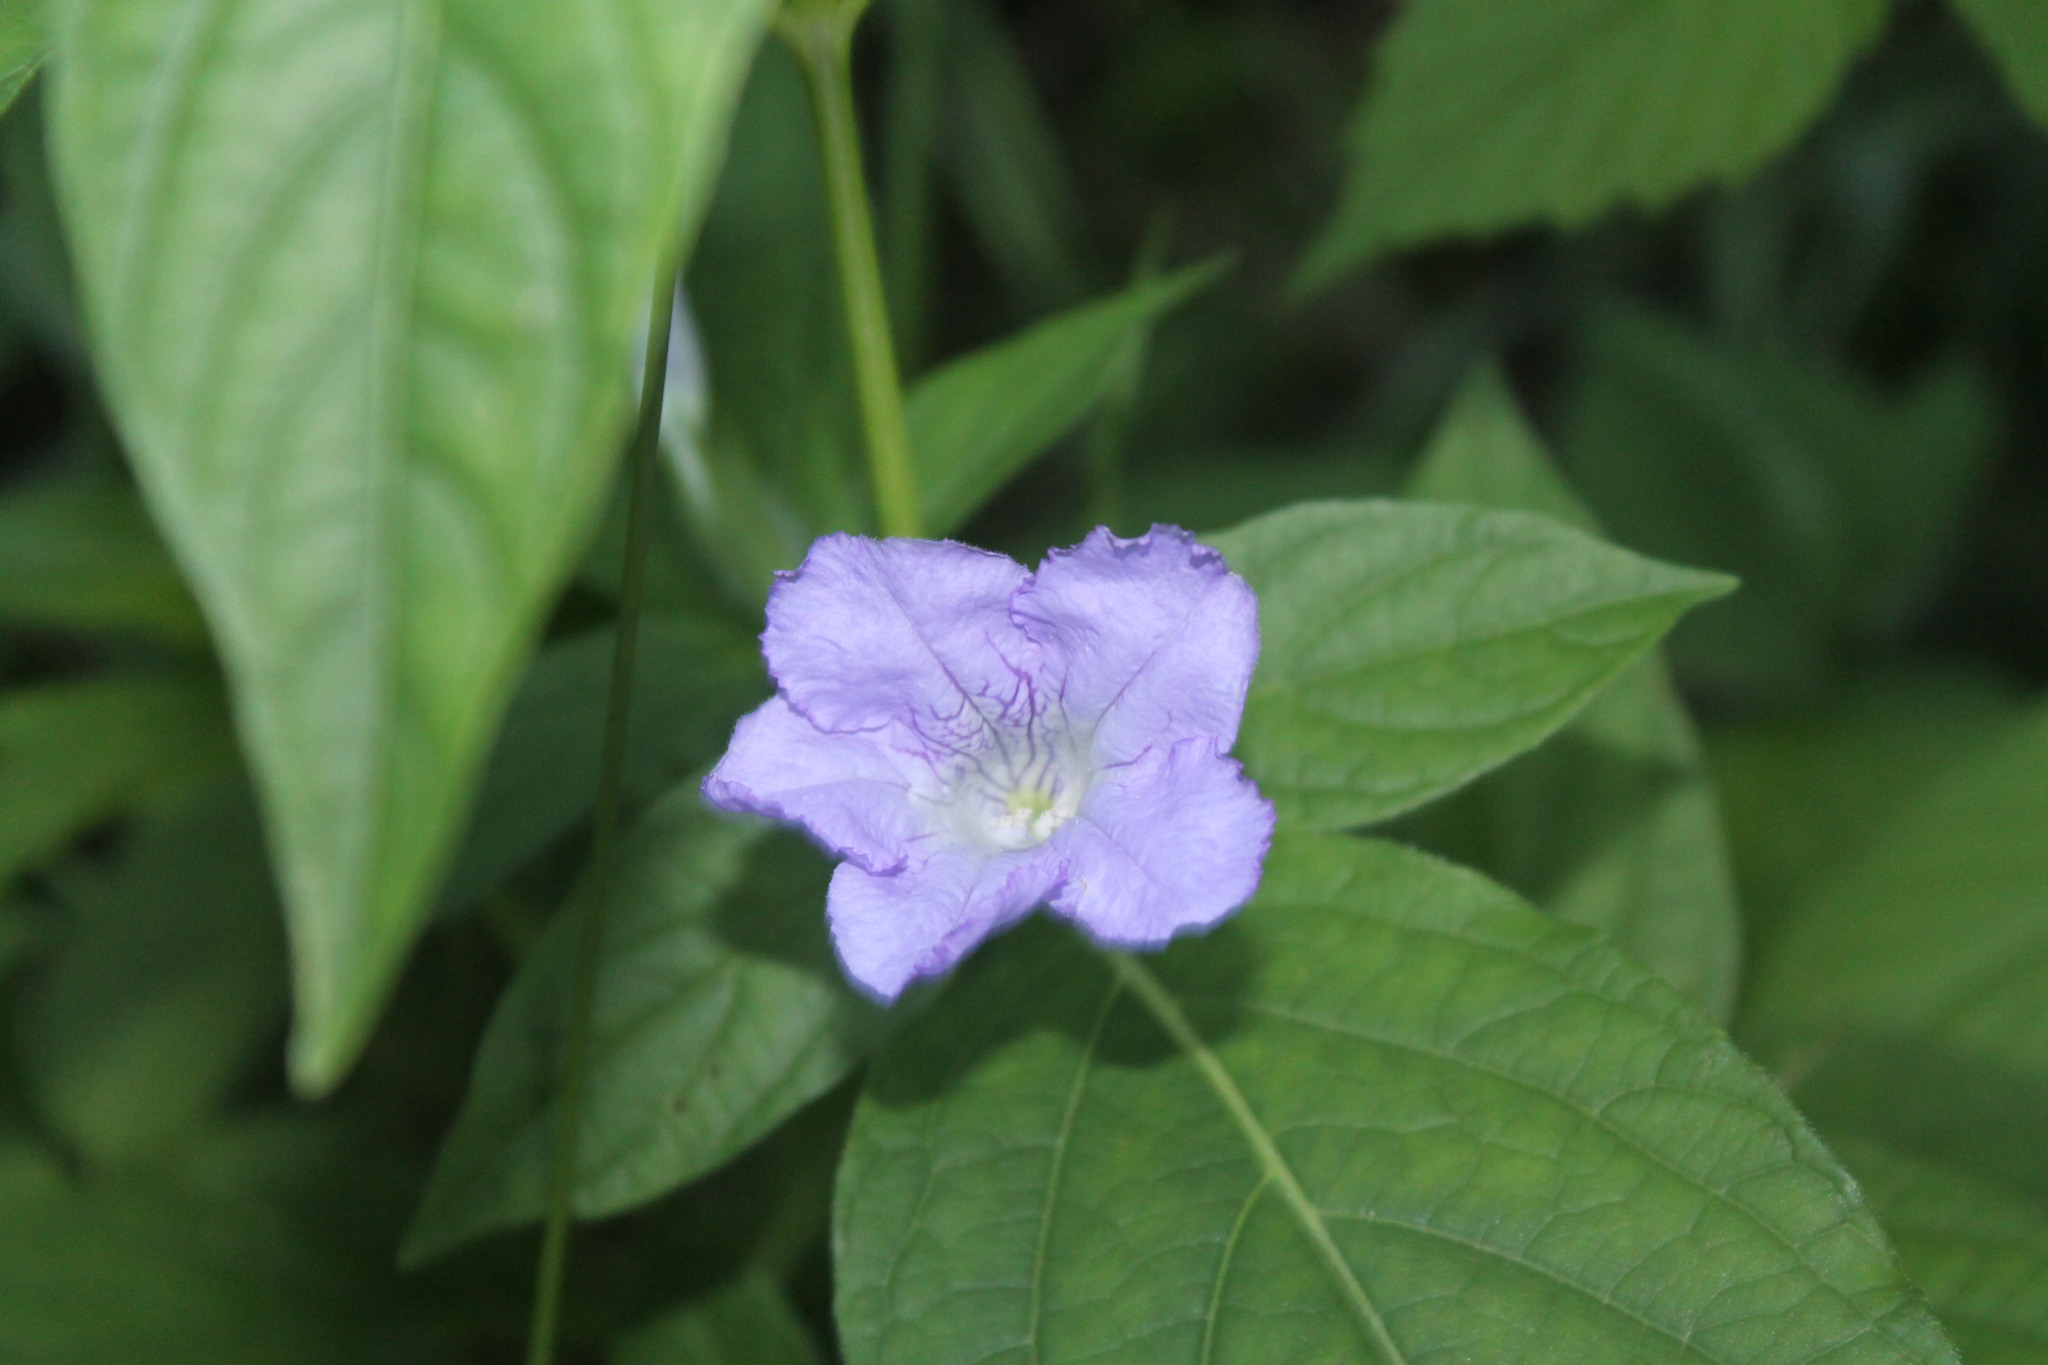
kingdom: Plantae
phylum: Tracheophyta
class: Magnoliopsida
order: Lamiales
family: Acanthaceae
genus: Ruellia
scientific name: Ruellia strepens
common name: Limestone wild petunia
